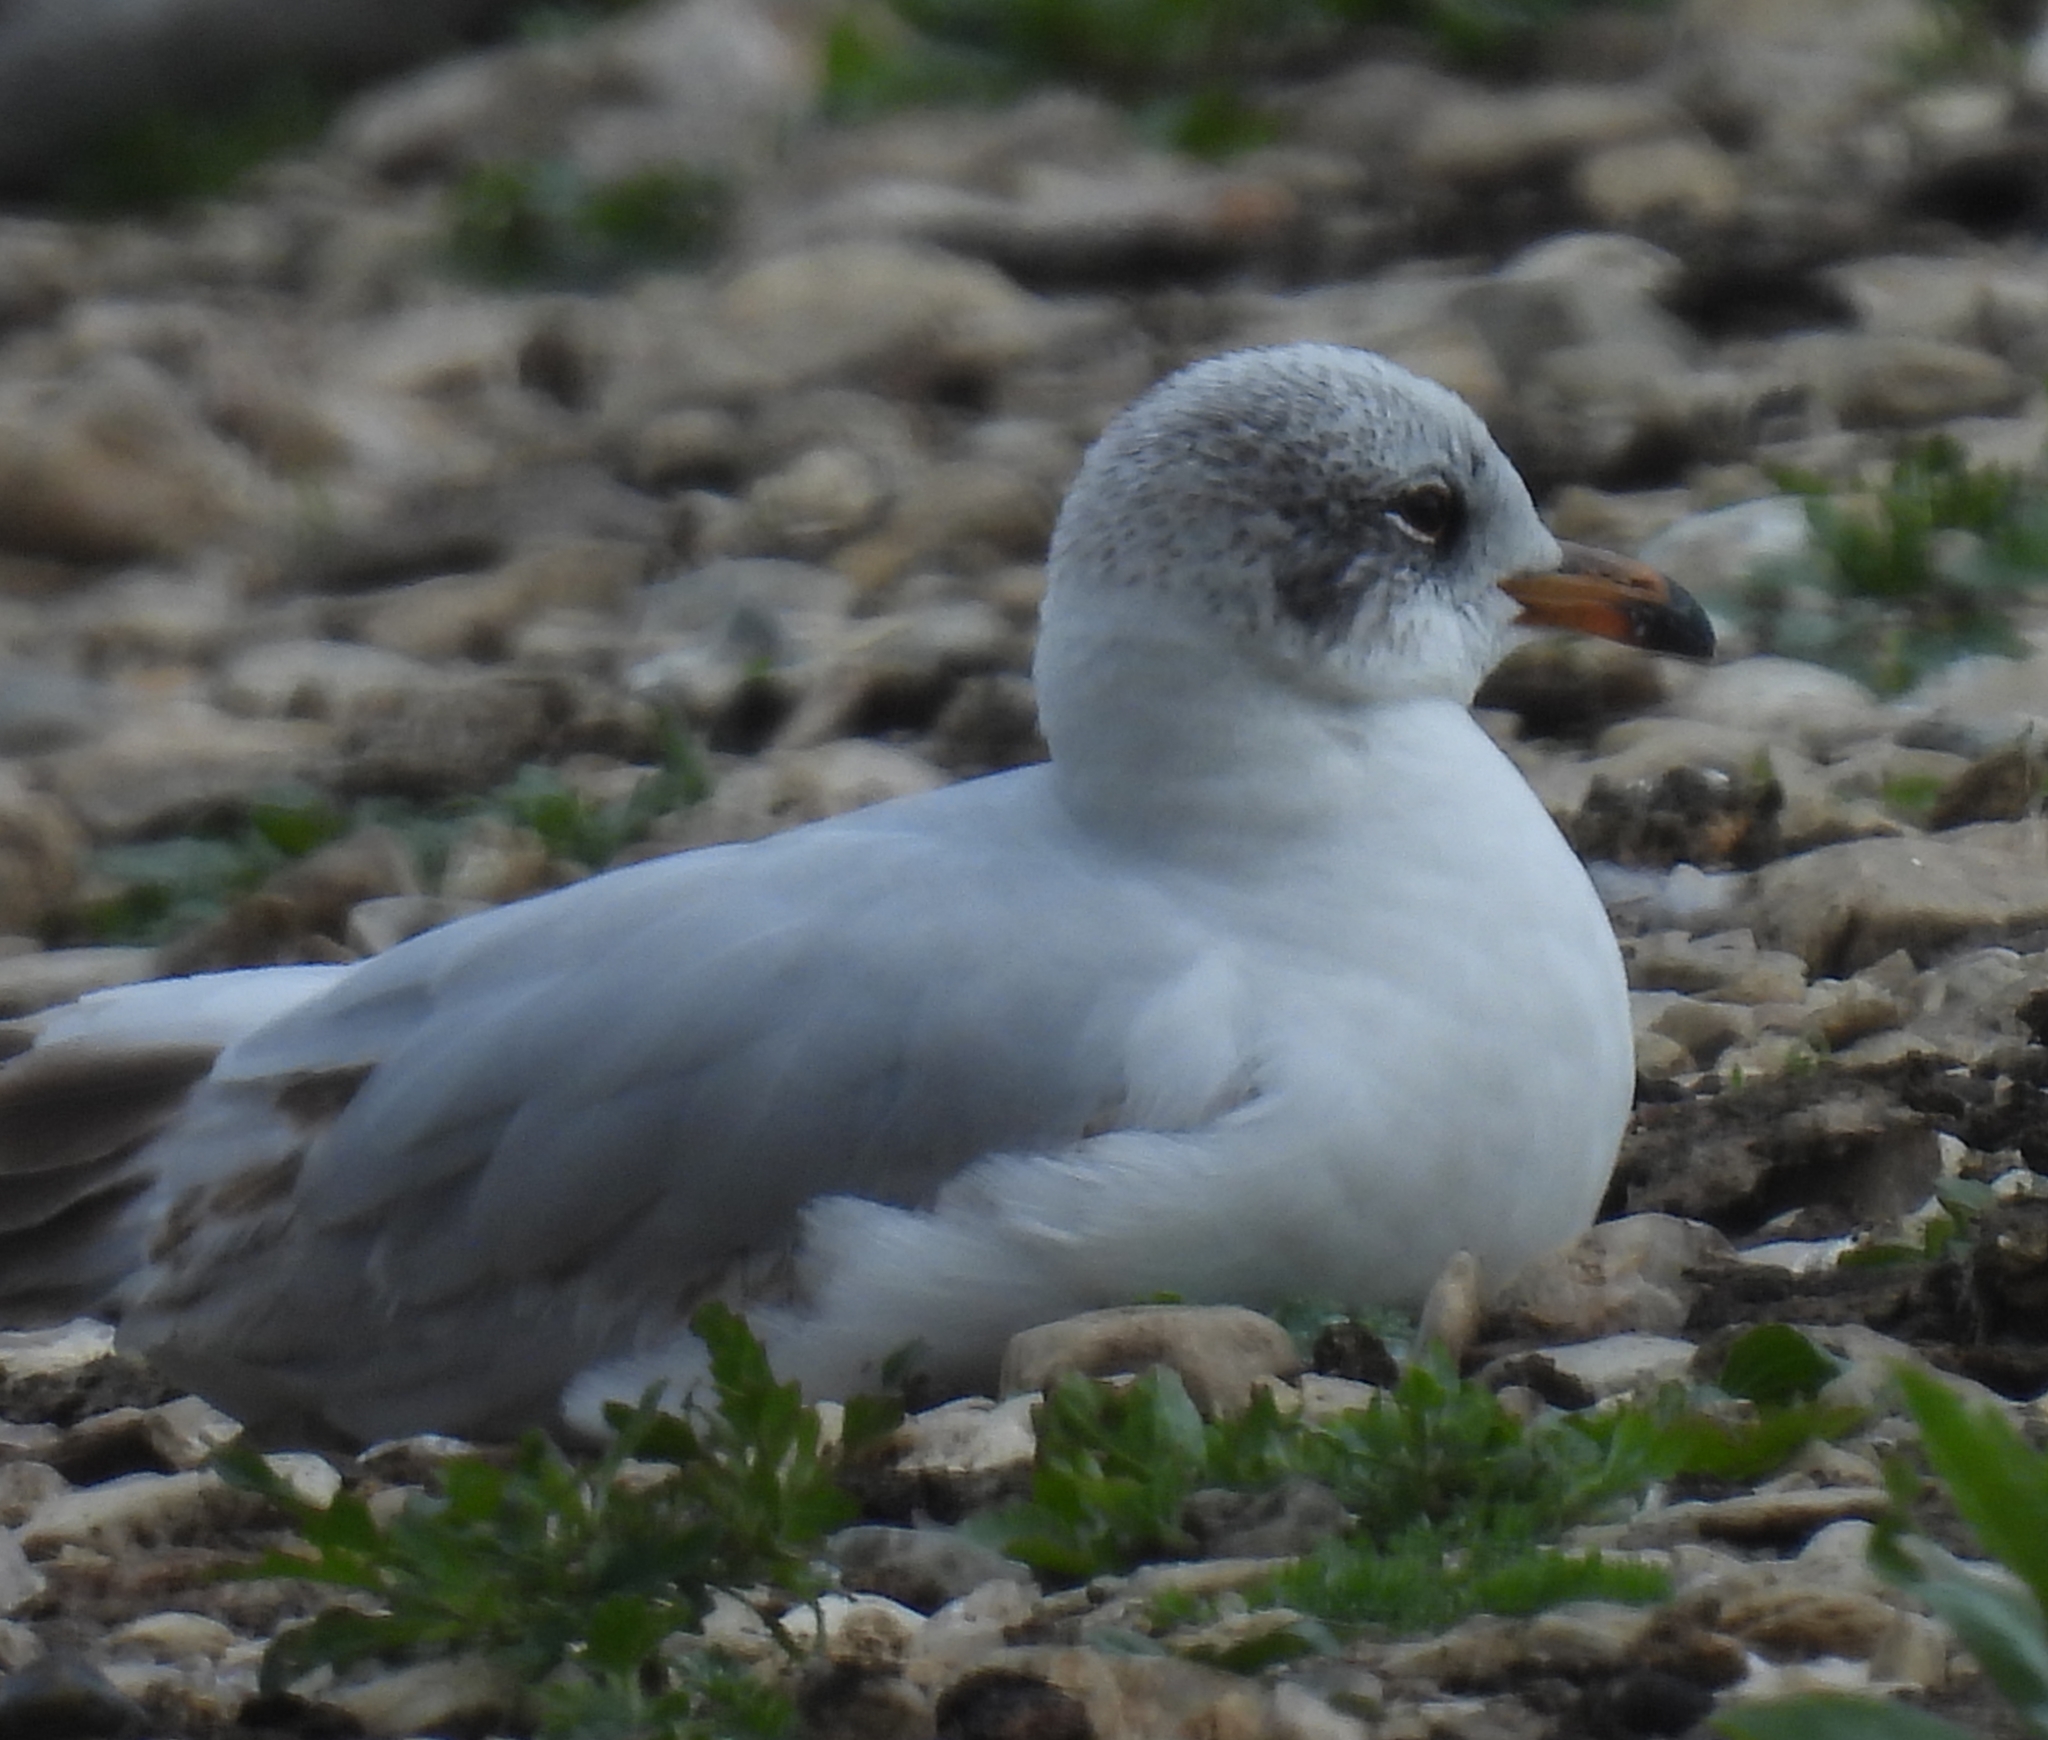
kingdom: Animalia
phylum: Chordata
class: Aves
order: Charadriiformes
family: Laridae
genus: Ichthyaetus
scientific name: Ichthyaetus melanocephalus
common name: Mediterranean gull
